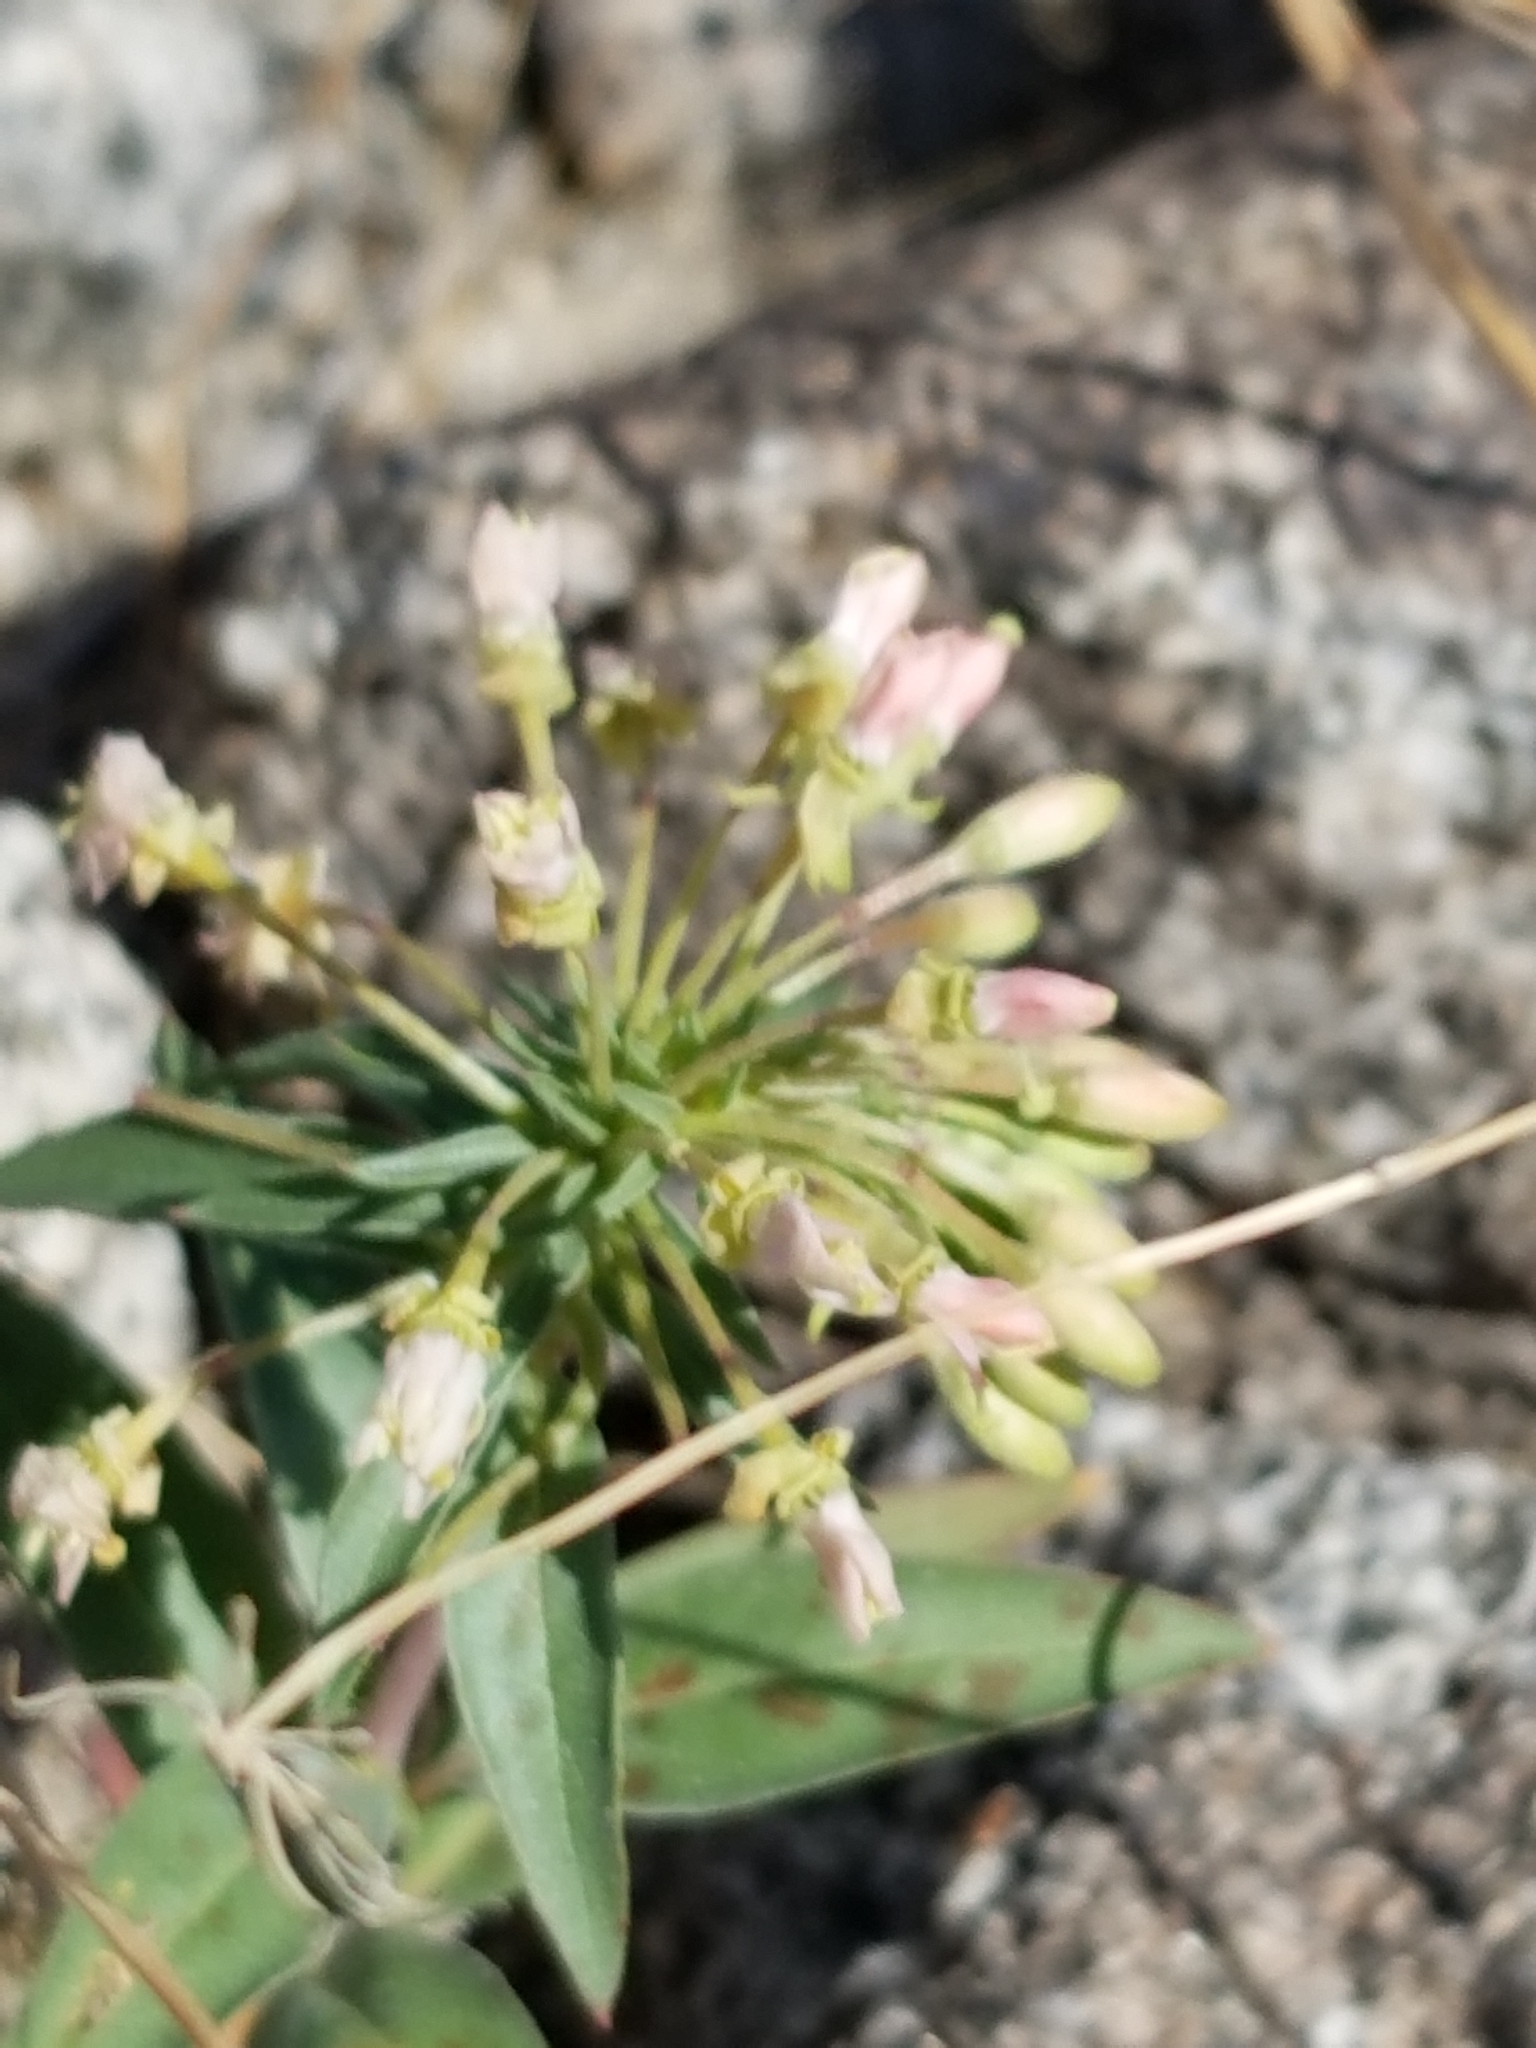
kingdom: Plantae
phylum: Tracheophyta
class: Magnoliopsida
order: Myrtales
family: Onagraceae
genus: Eremothera
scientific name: Eremothera boothii
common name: Booth's evening primrose
